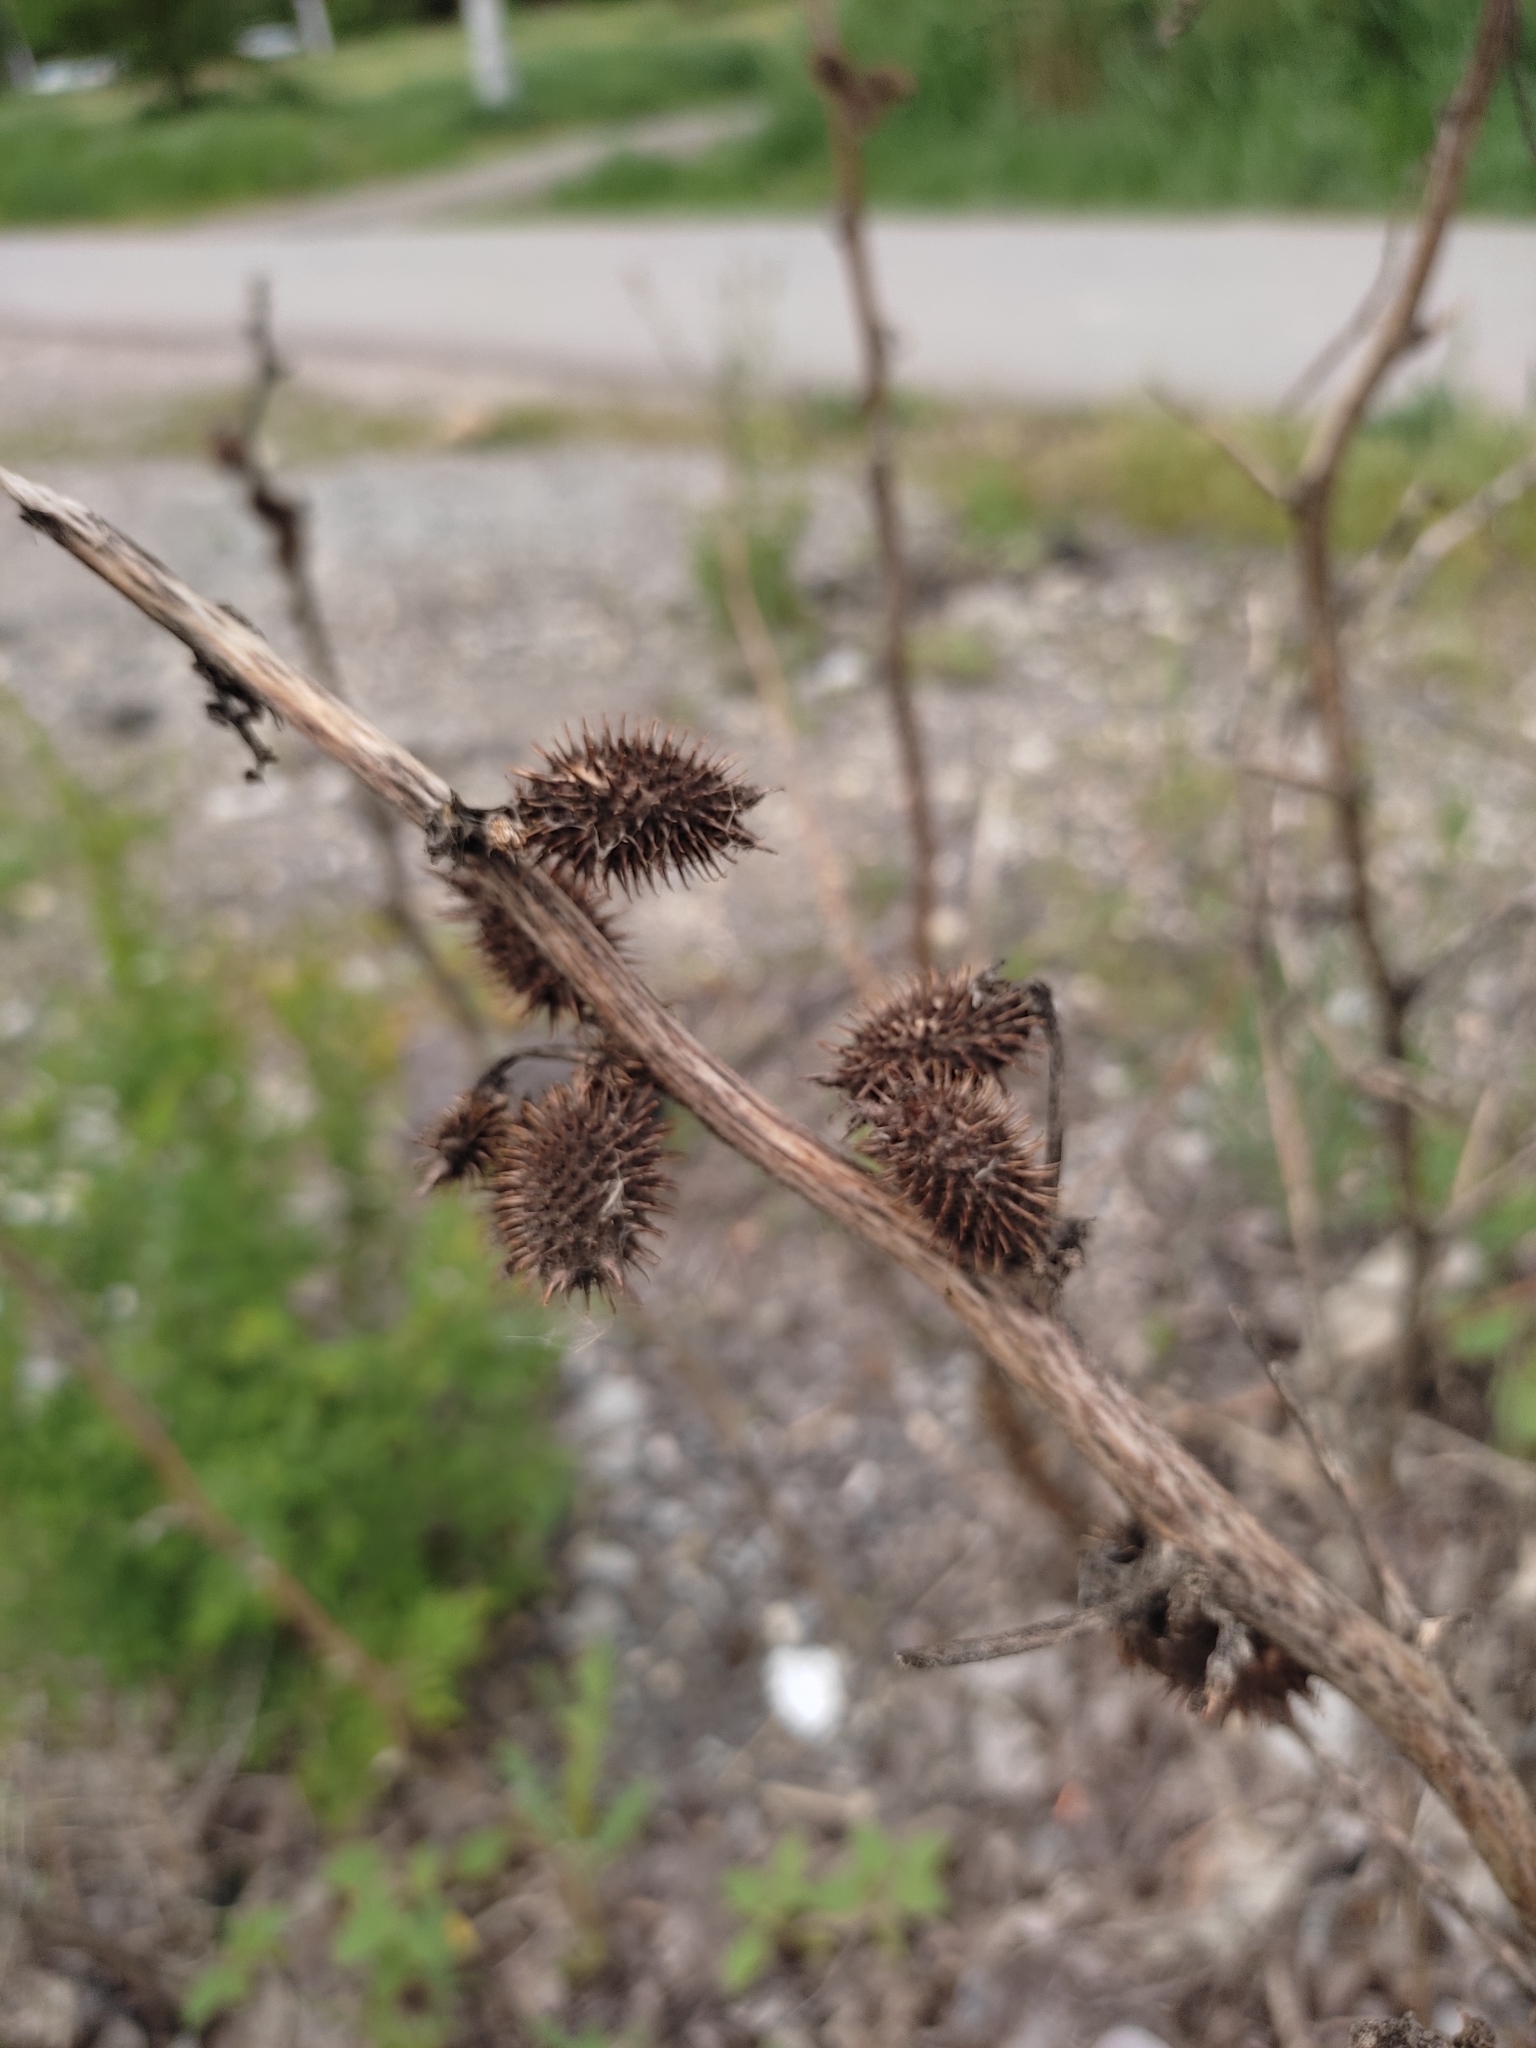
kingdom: Plantae
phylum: Tracheophyta
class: Magnoliopsida
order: Asterales
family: Asteraceae
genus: Xanthium
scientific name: Xanthium orientale
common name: Californian burr
